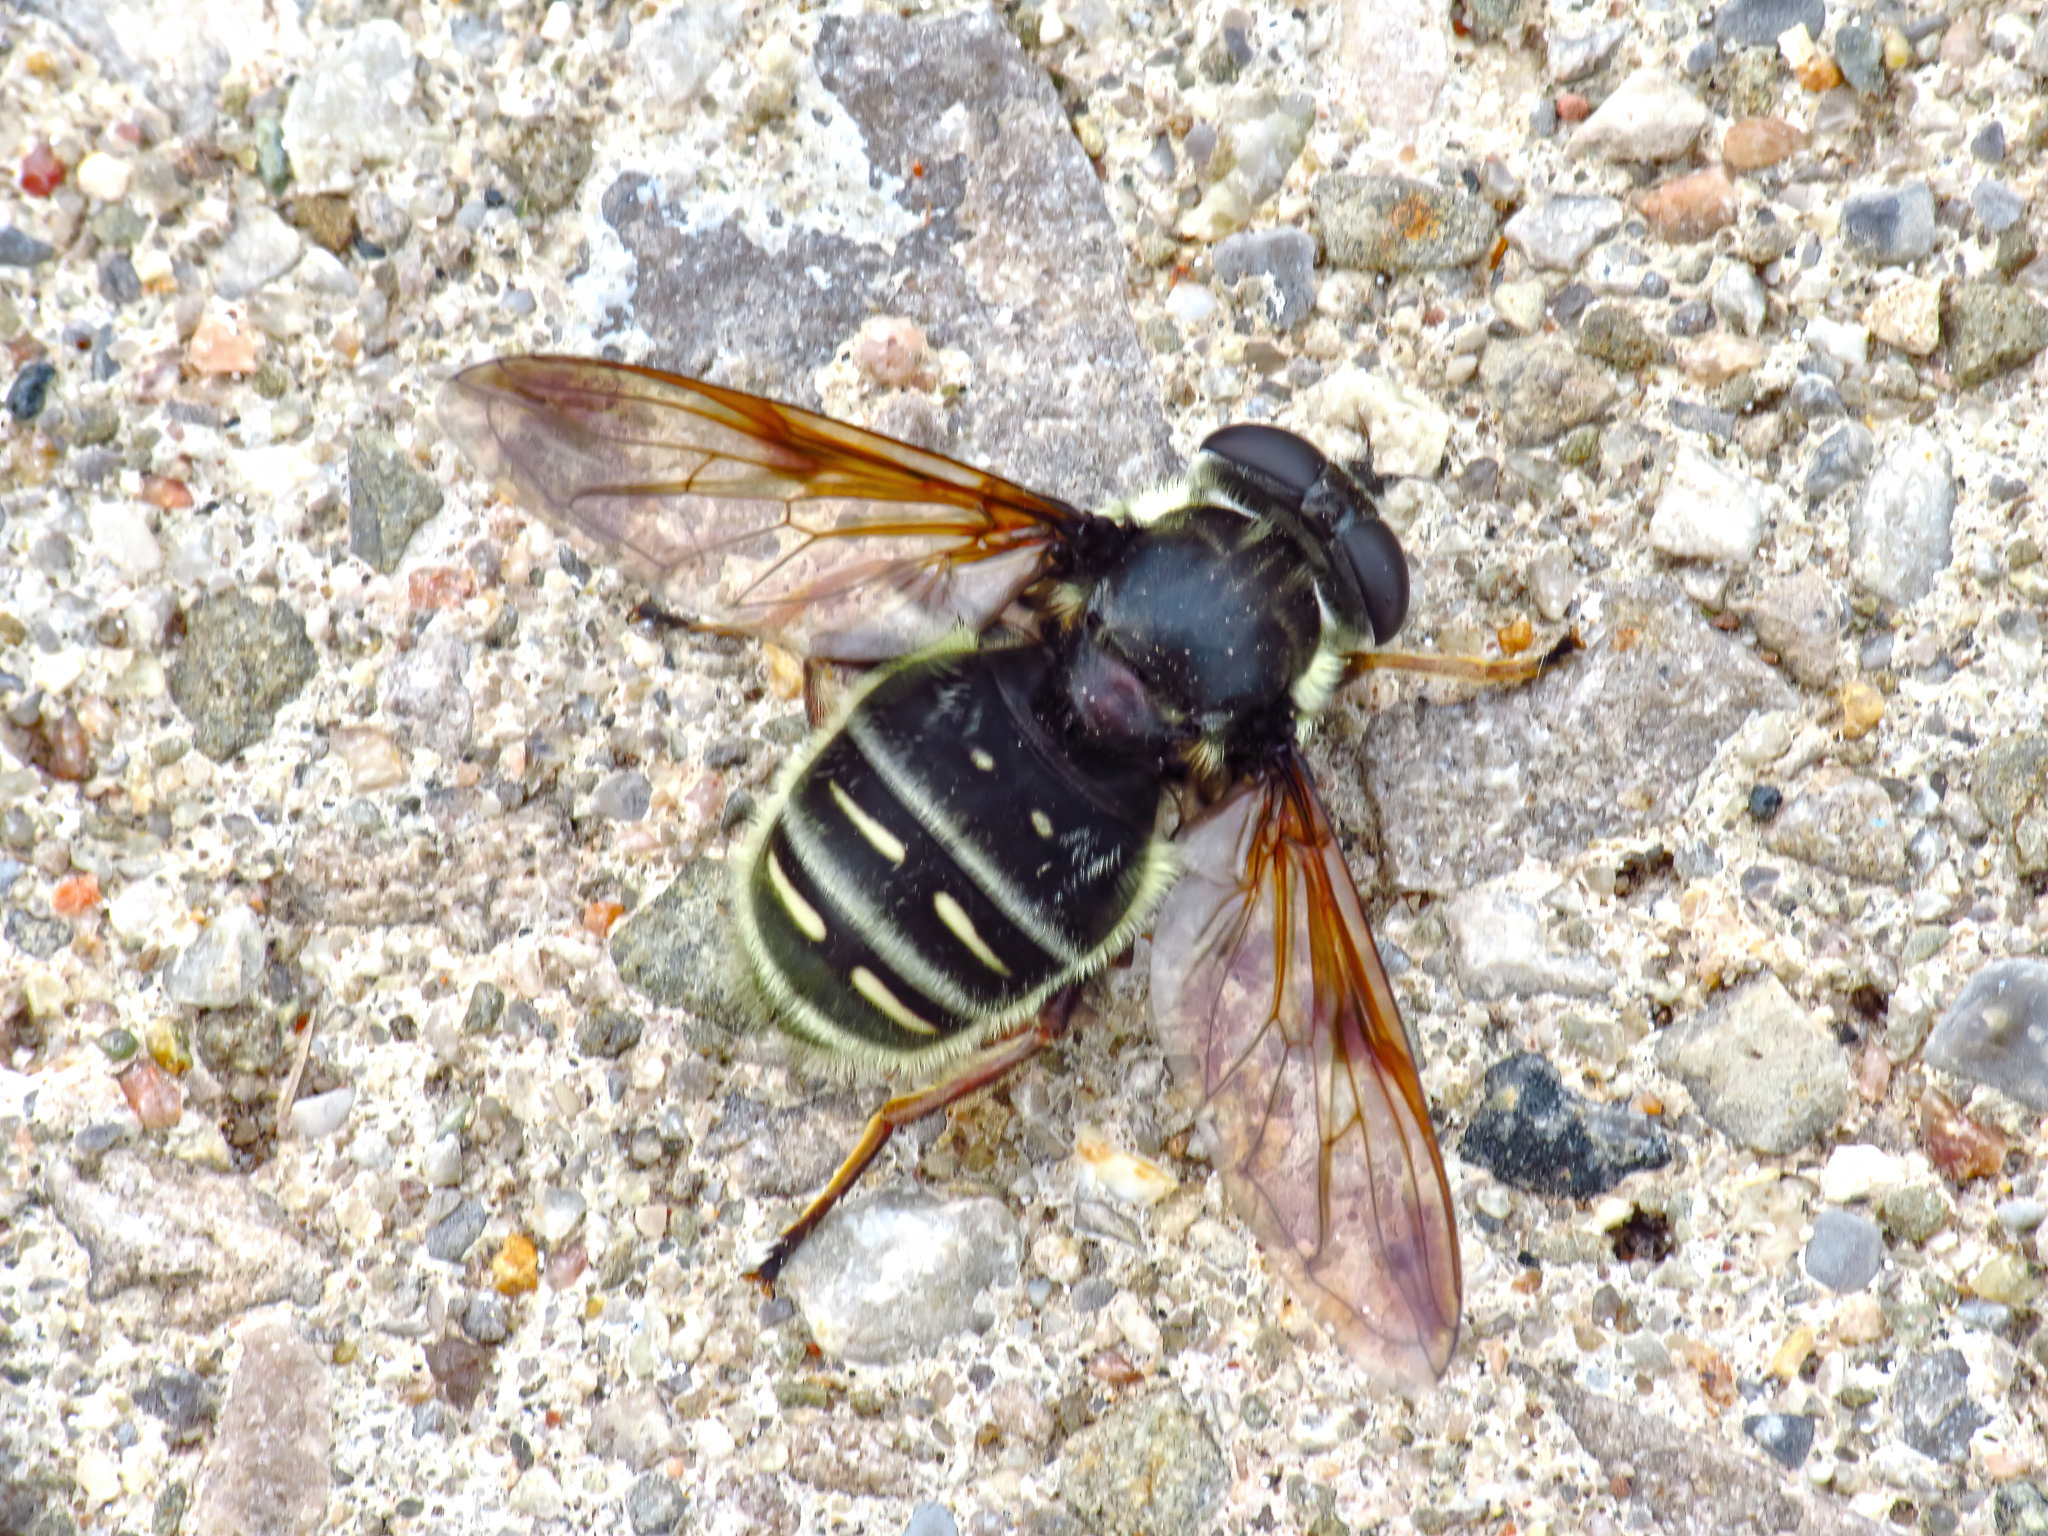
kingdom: Animalia
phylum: Arthropoda
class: Insecta
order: Diptera
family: Syrphidae
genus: Sericomyia
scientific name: Sericomyia militaris
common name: Narrow-banded pond fly
